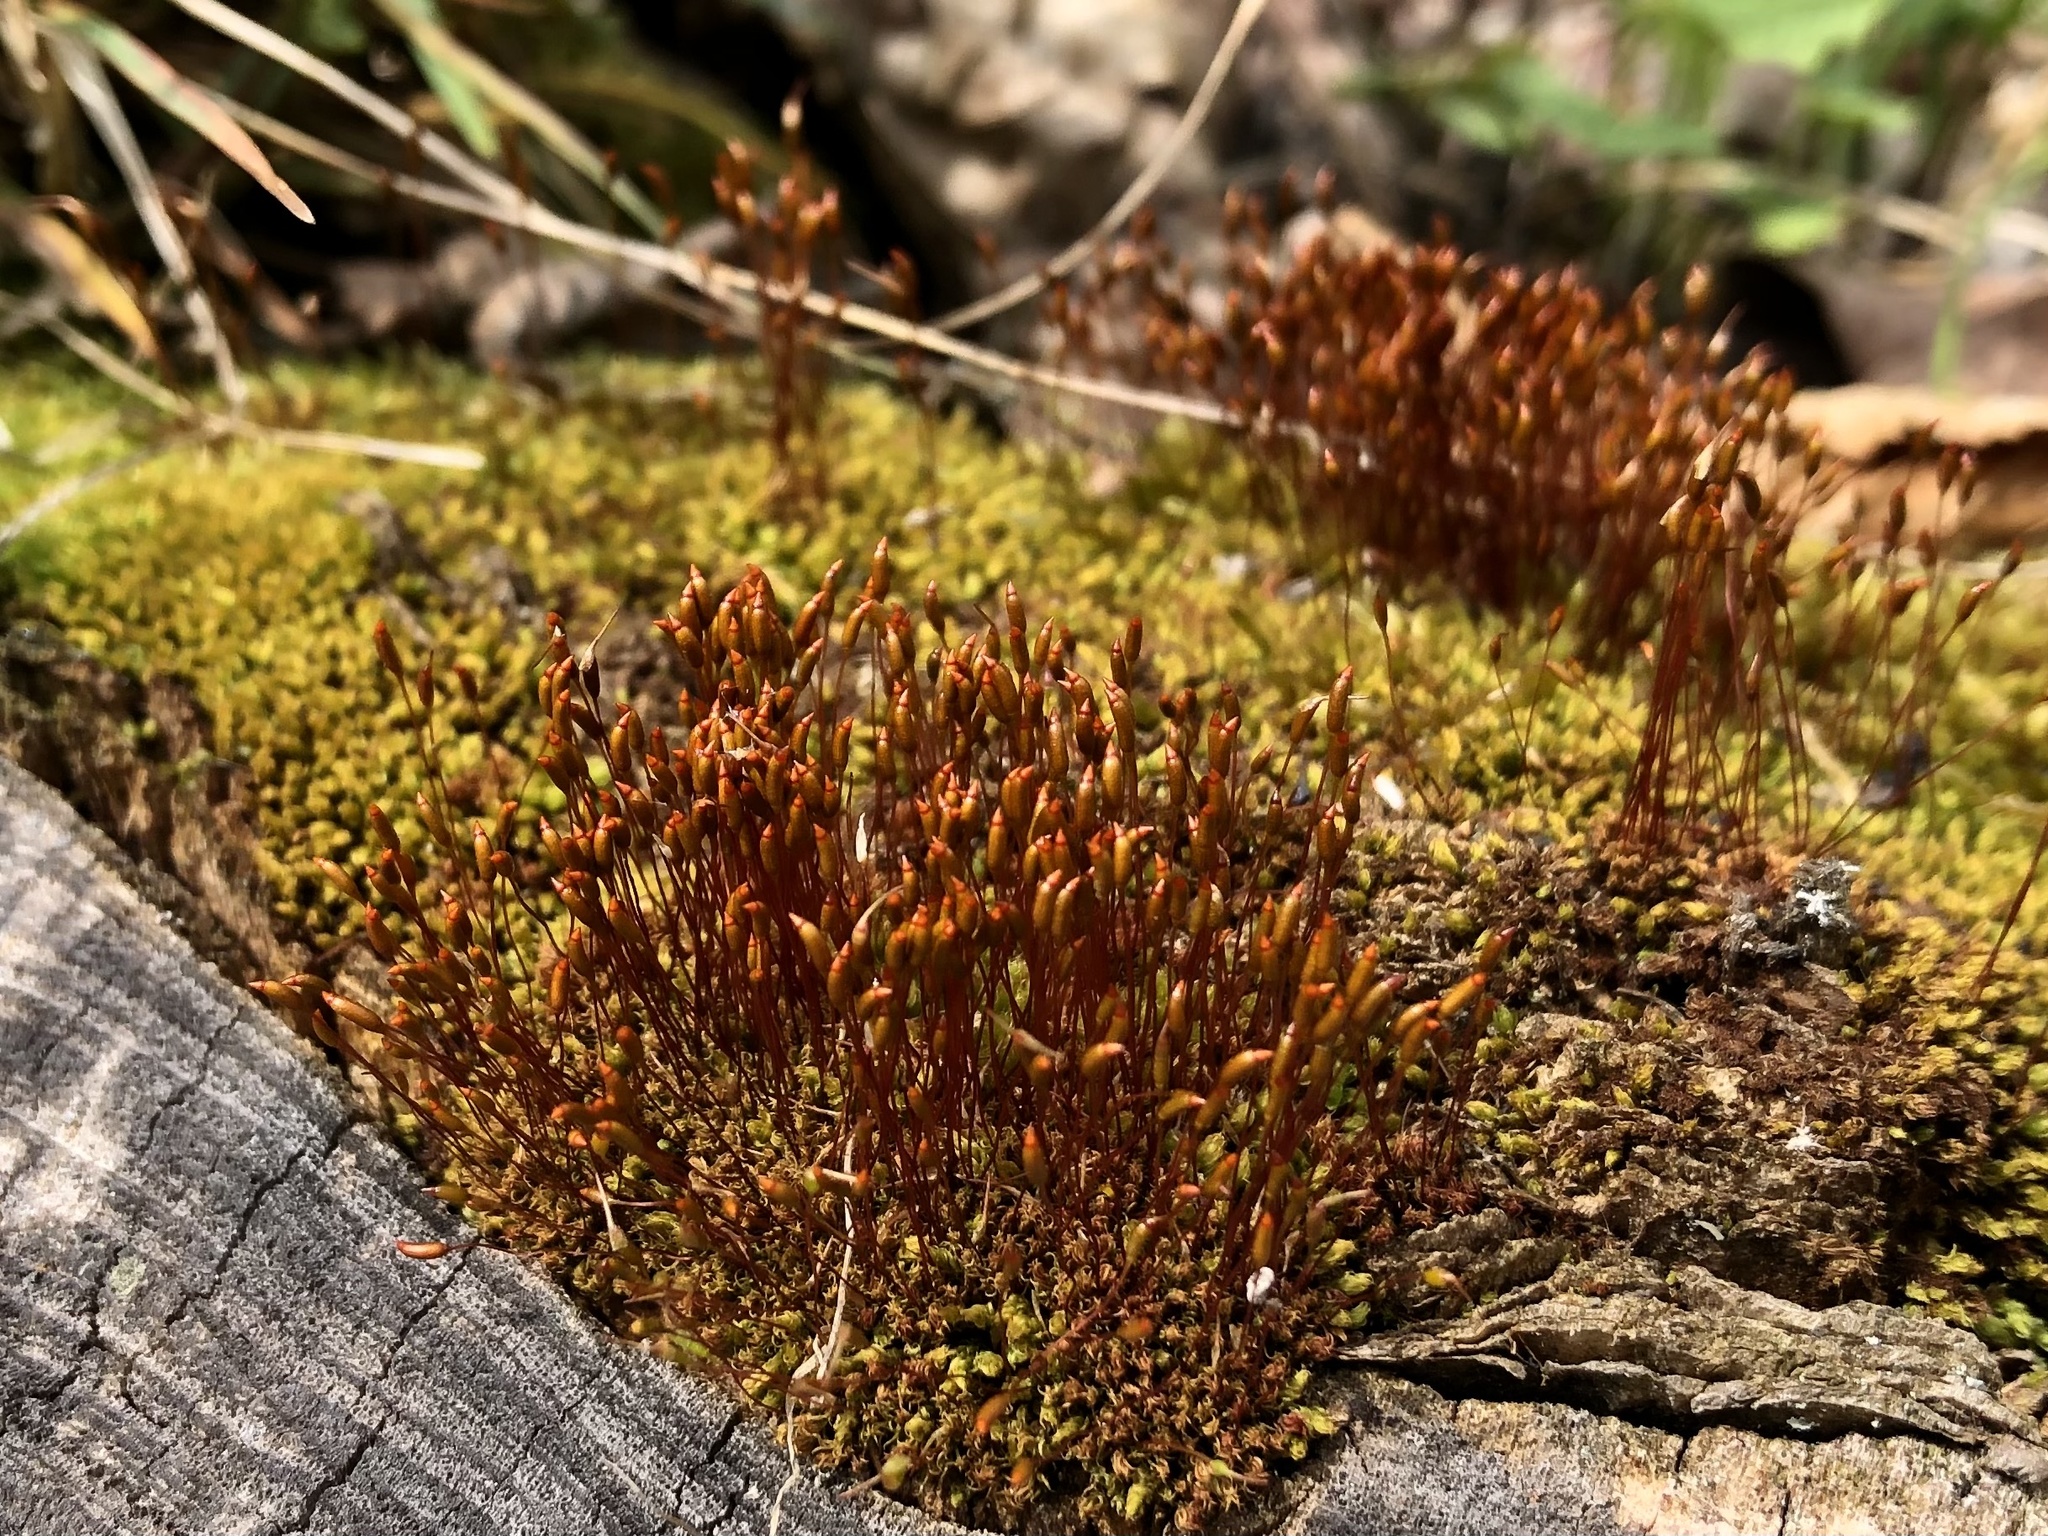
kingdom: Plantae
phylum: Bryophyta
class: Bryopsida
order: Dicranales
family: Ditrichaceae
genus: Ceratodon
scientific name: Ceratodon purpureus
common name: Redshank
